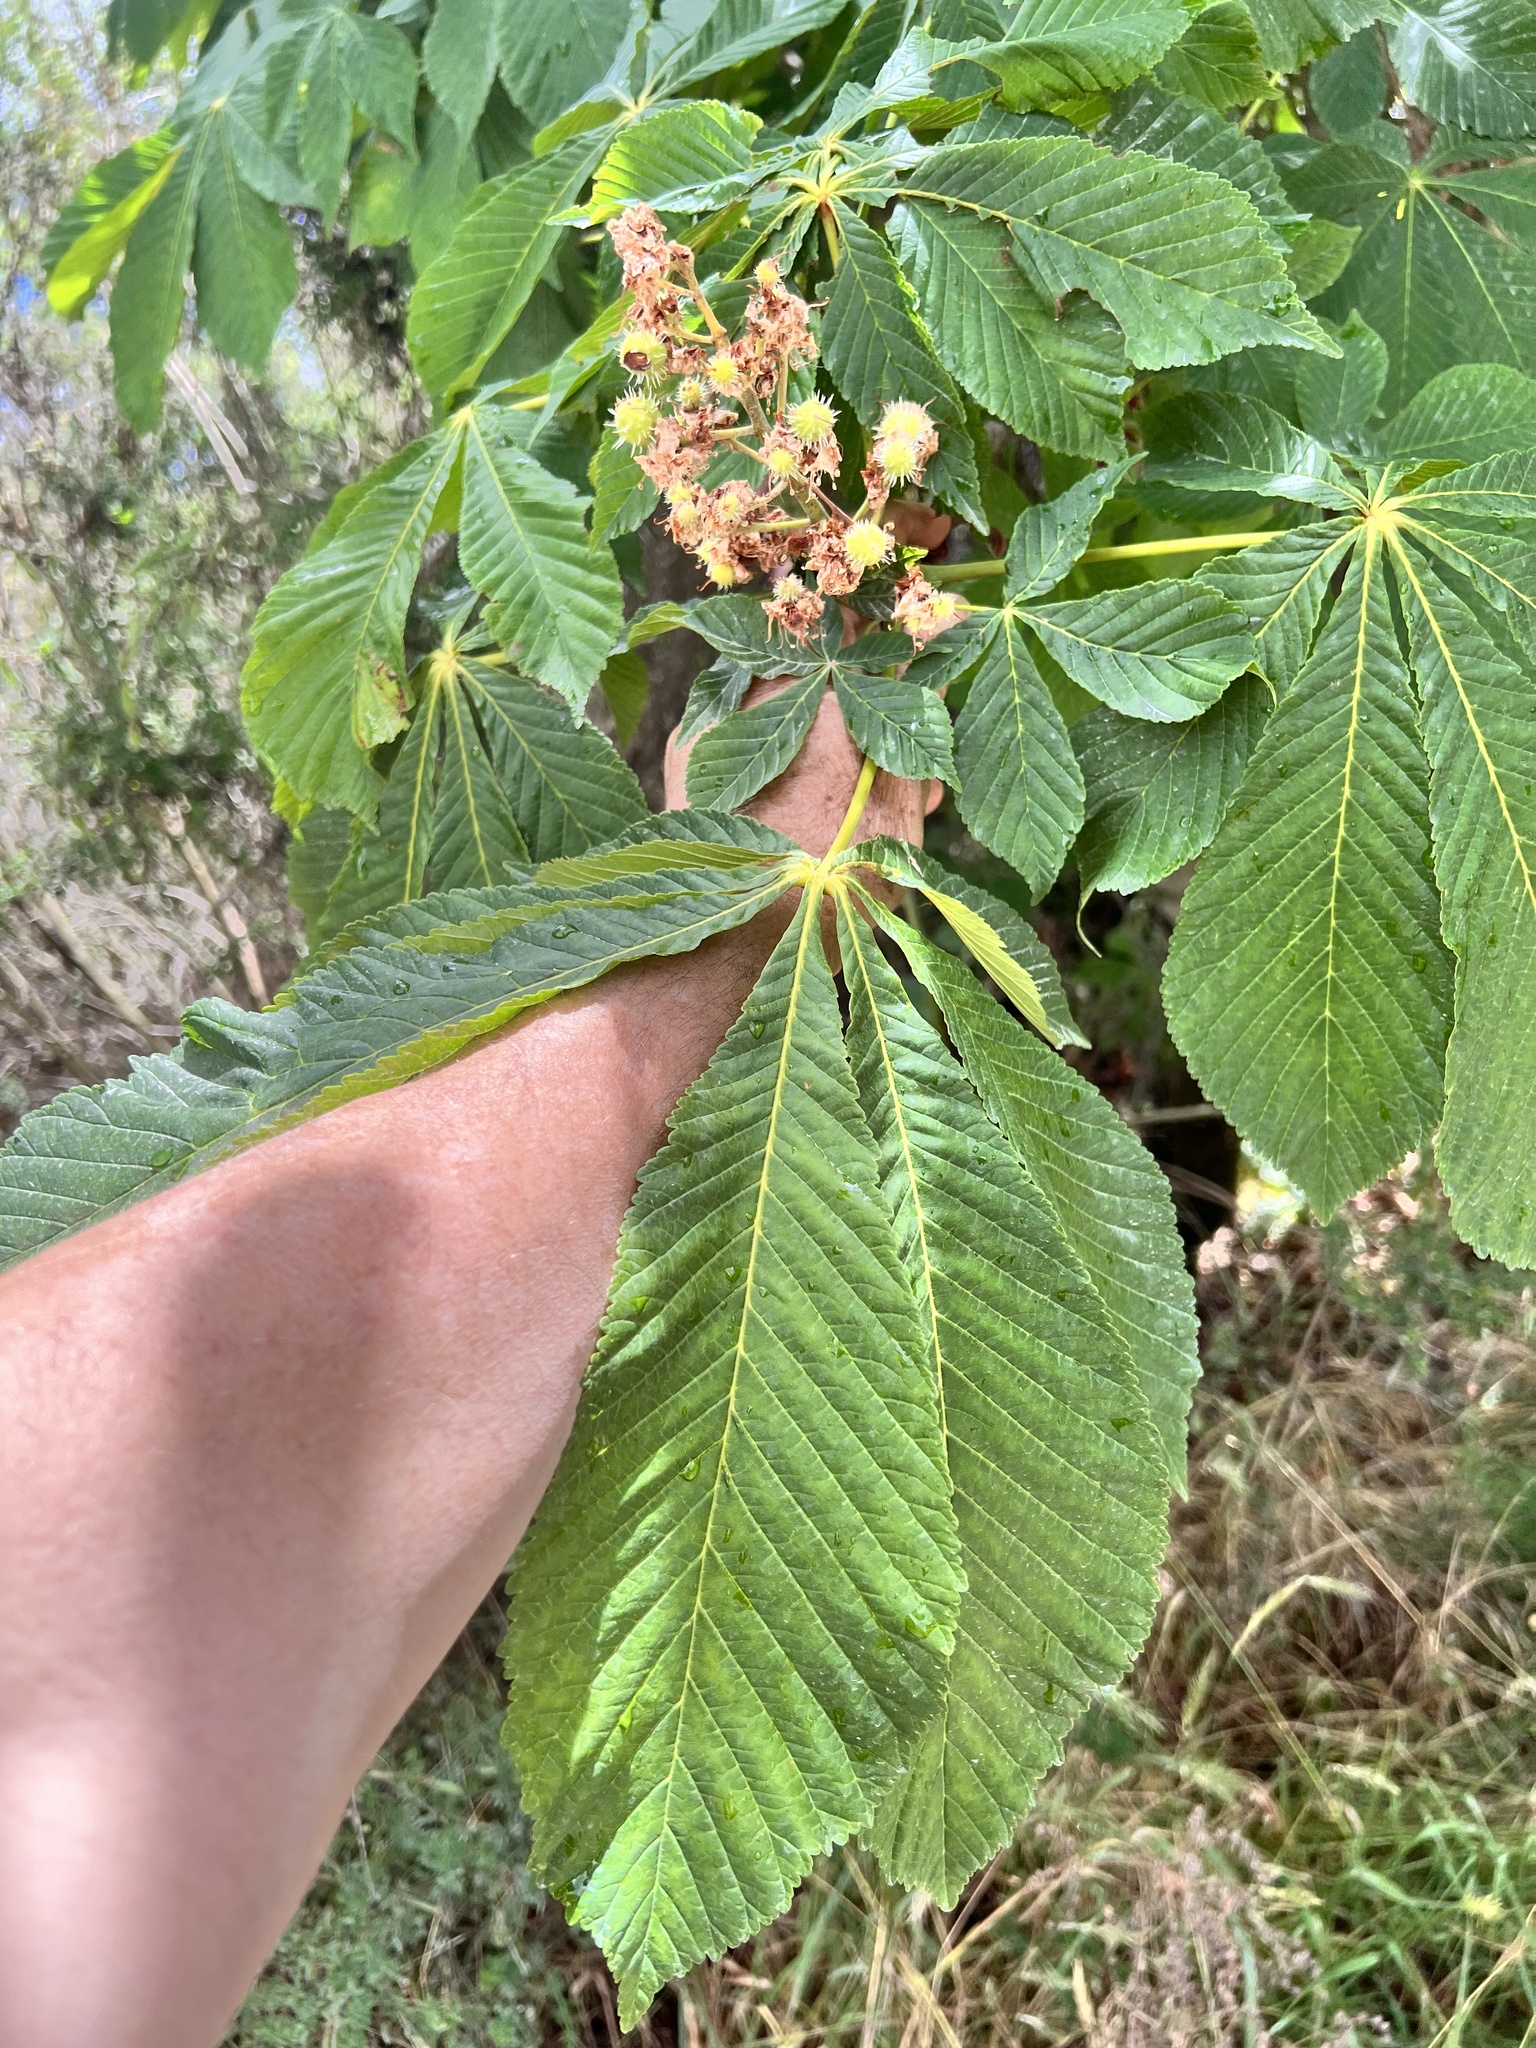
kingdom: Plantae
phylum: Tracheophyta
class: Magnoliopsida
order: Sapindales
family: Sapindaceae
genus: Aesculus
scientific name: Aesculus hippocastanum
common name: Horse-chestnut
